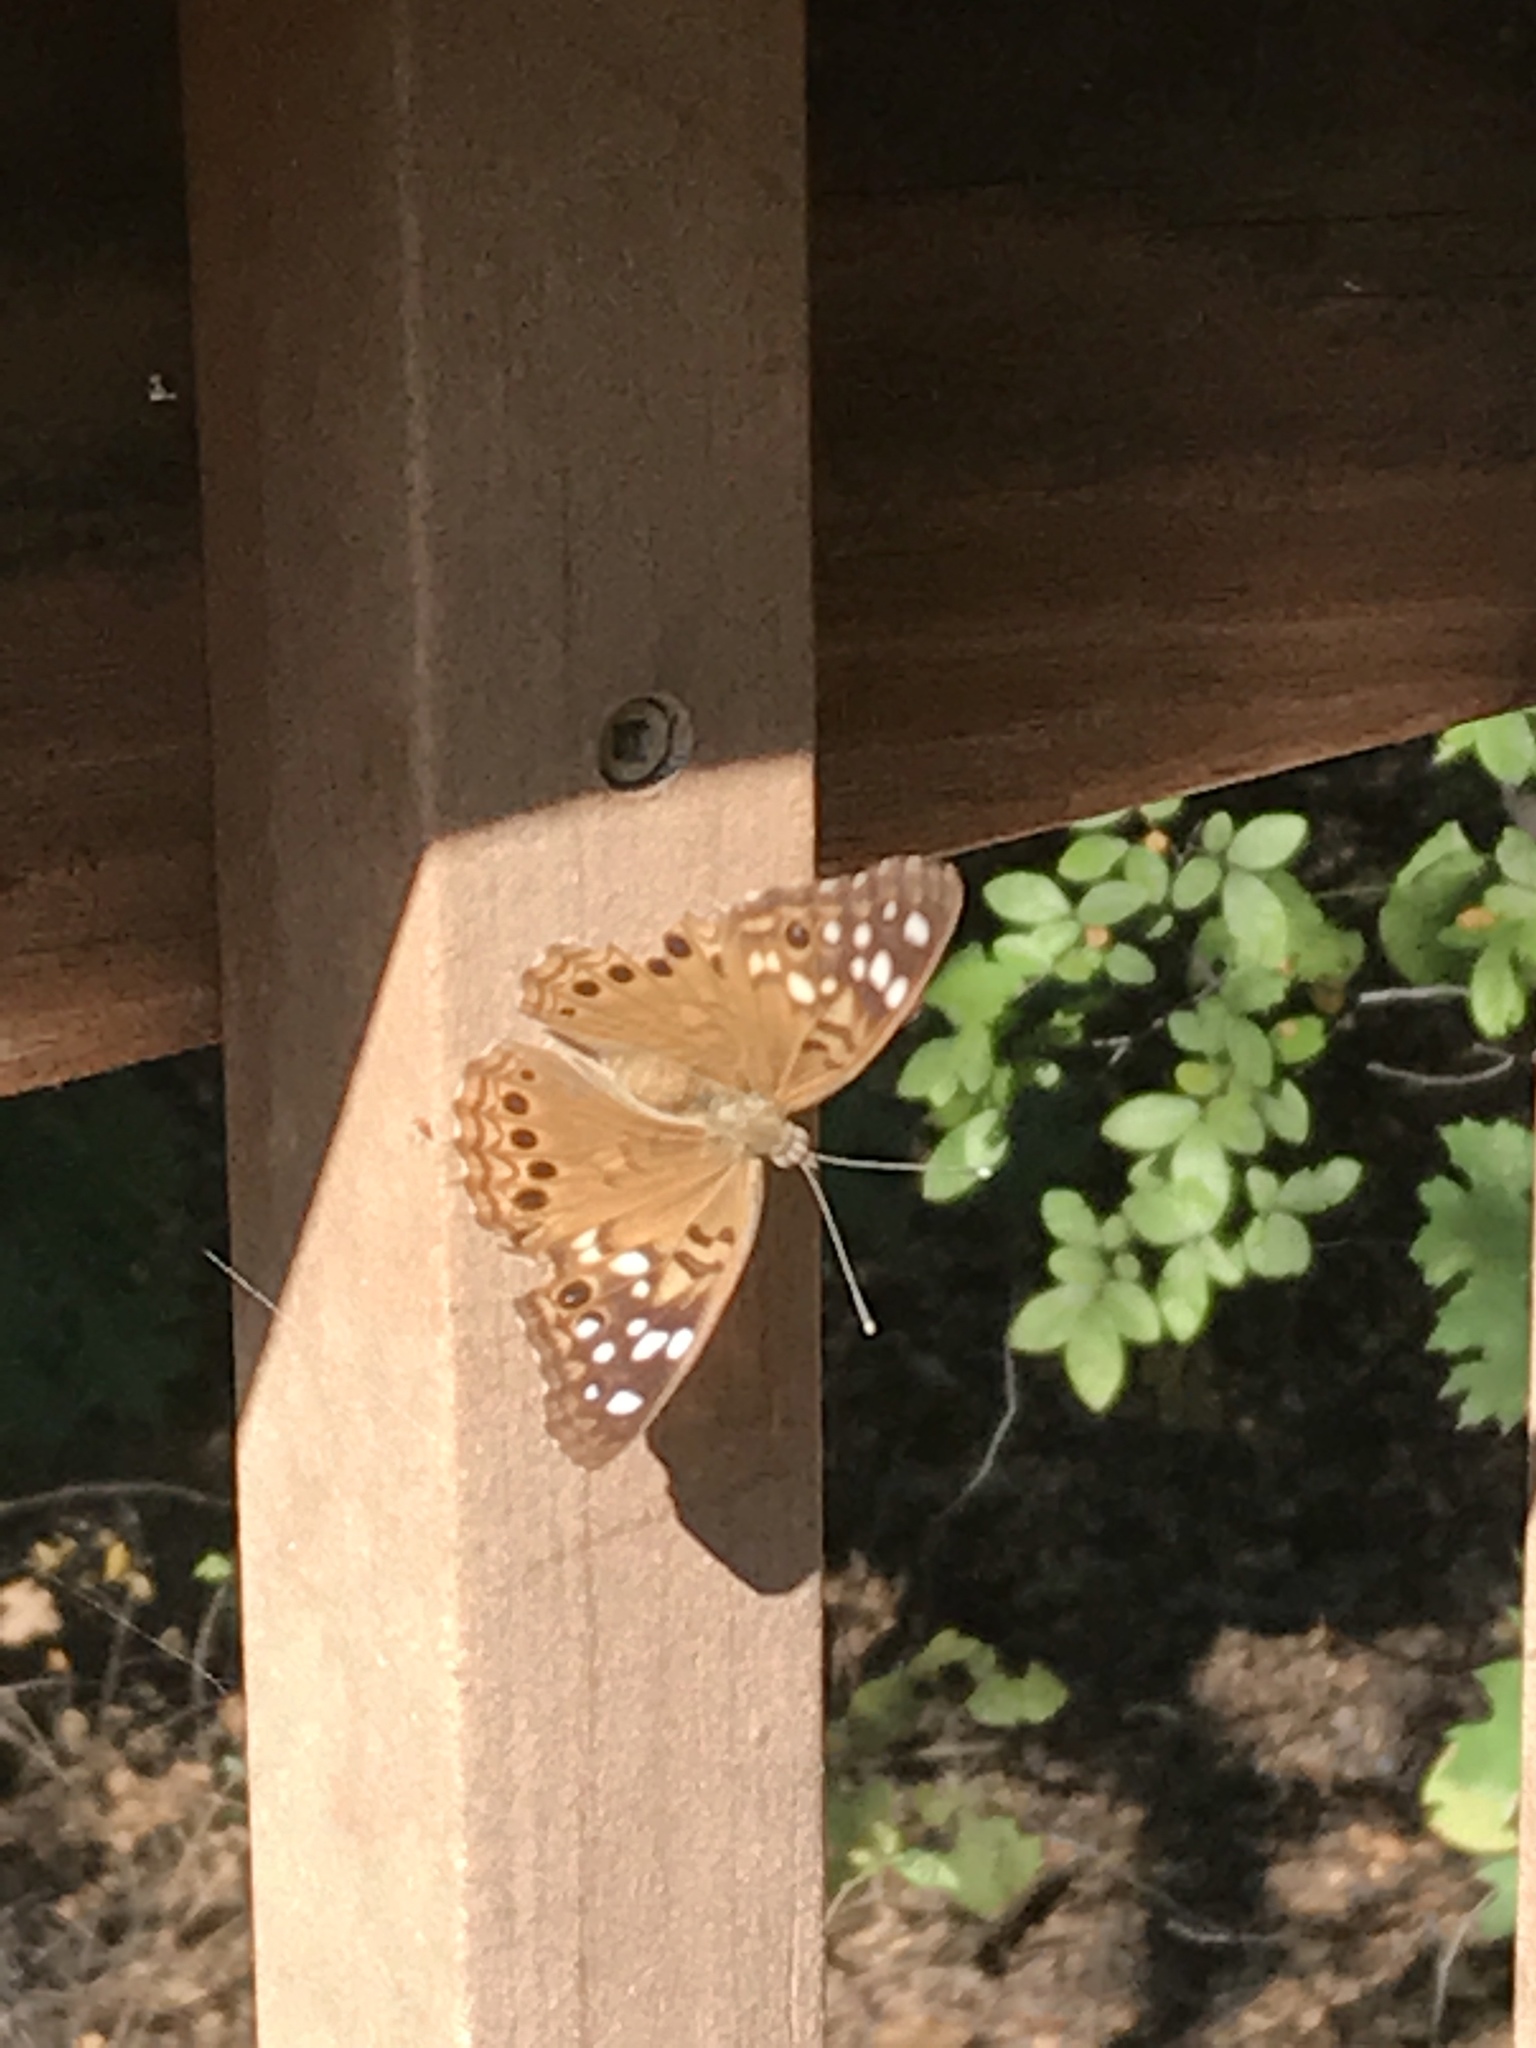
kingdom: Animalia
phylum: Arthropoda
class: Insecta
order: Lepidoptera
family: Nymphalidae
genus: Asterocampa
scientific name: Asterocampa celtis
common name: Hackberry emperor
